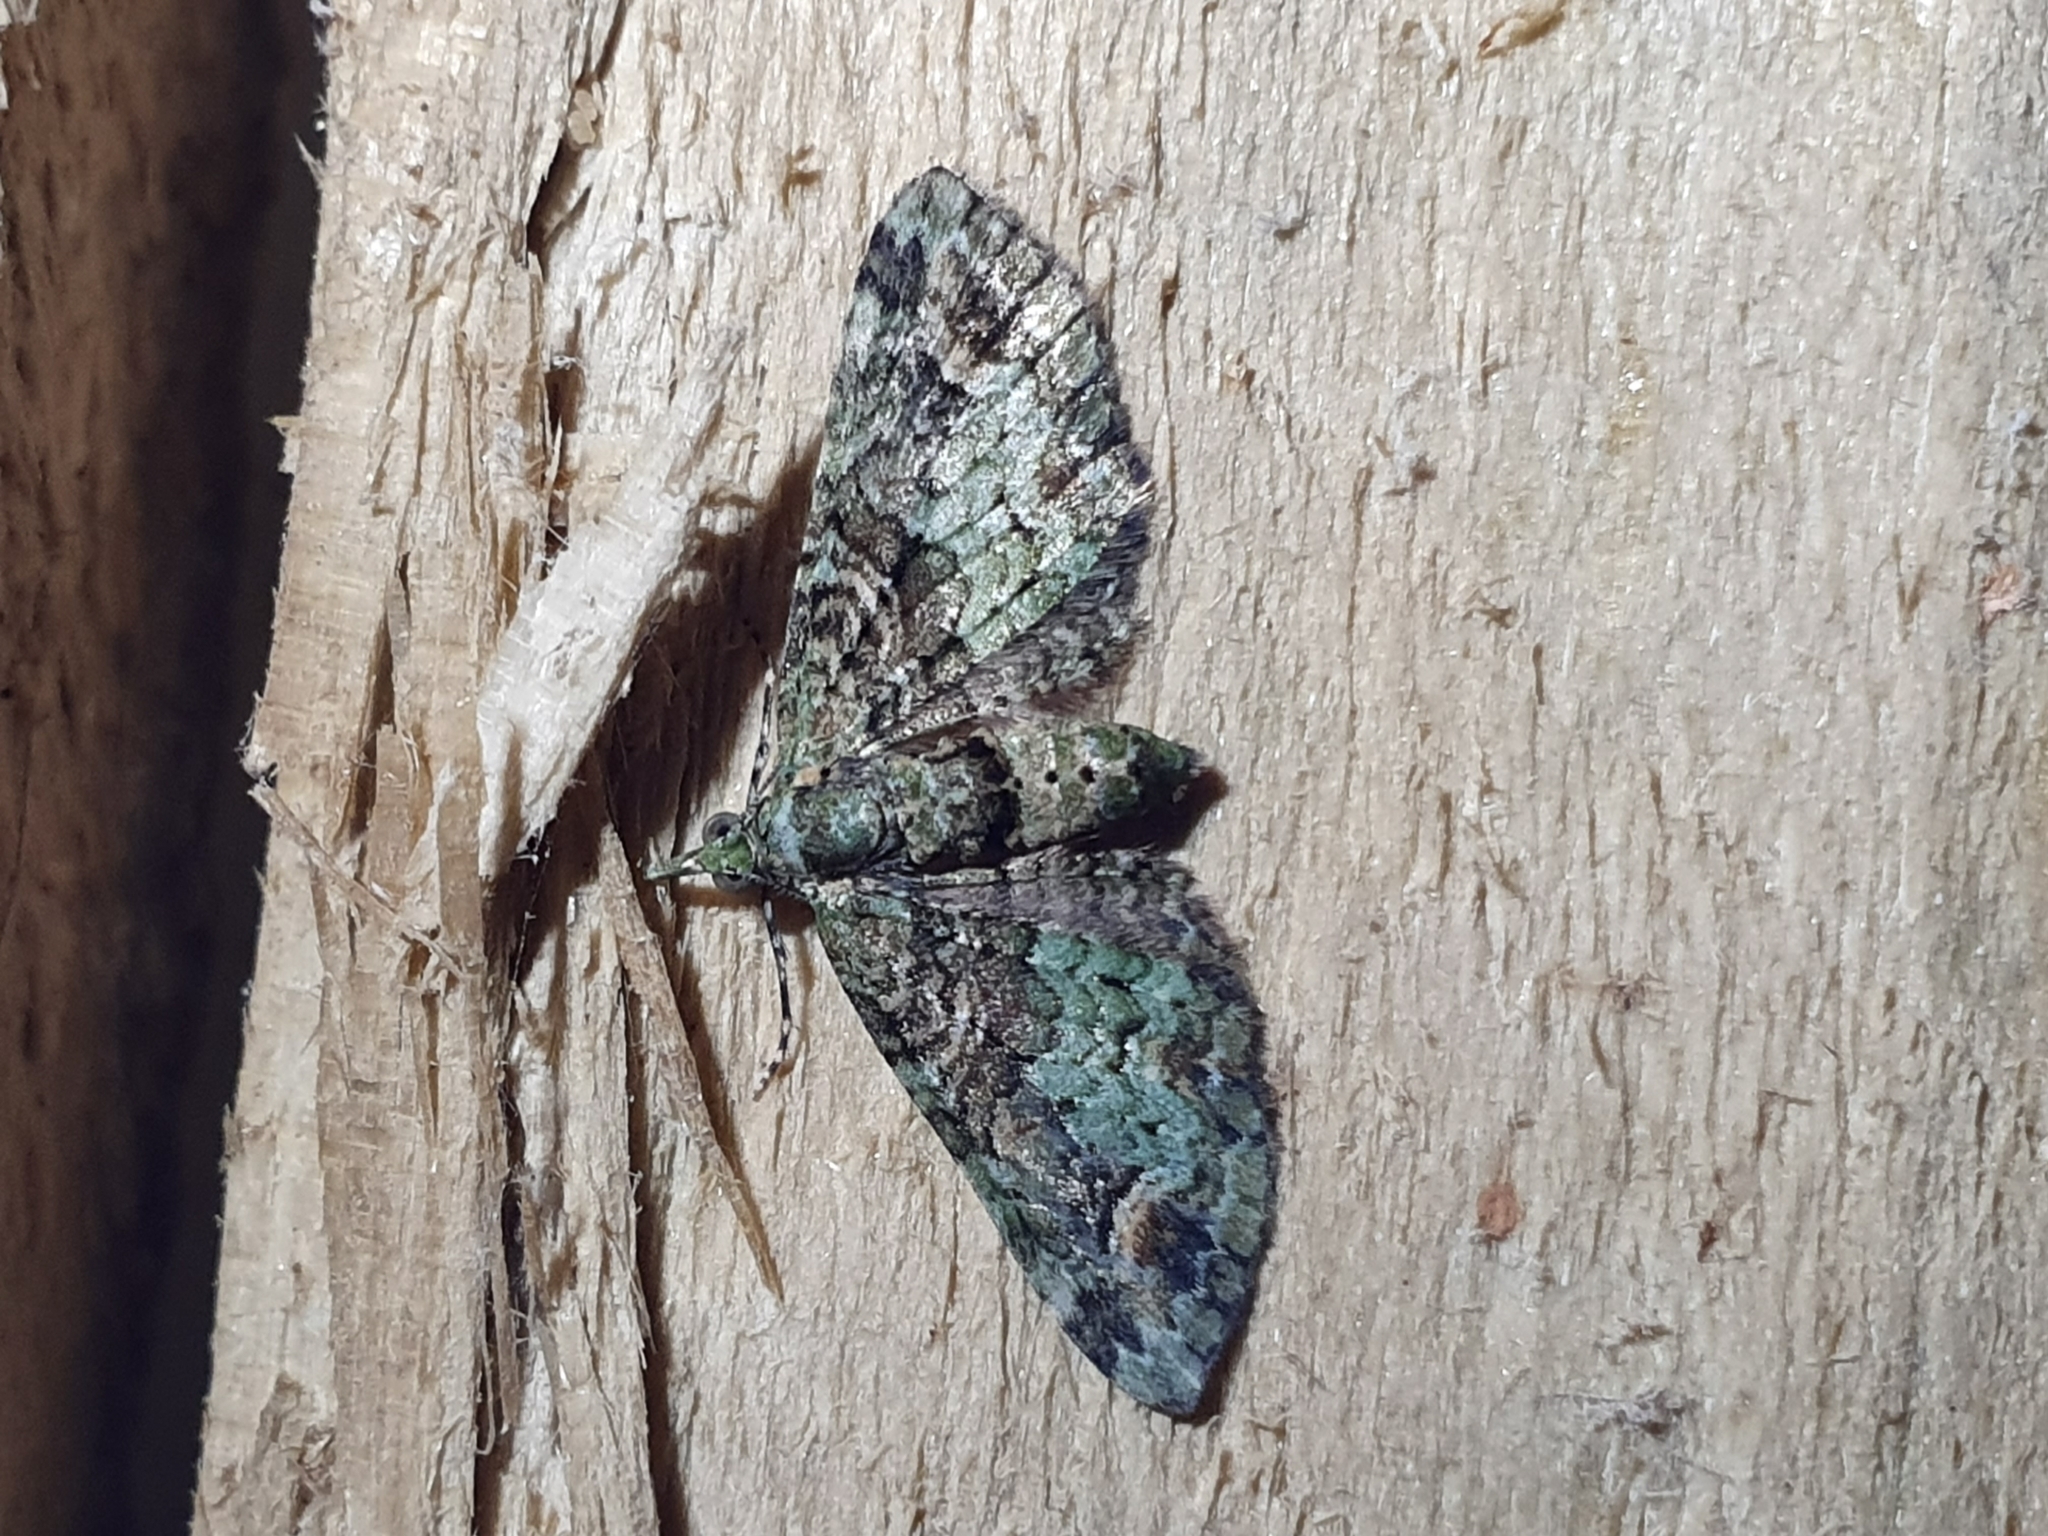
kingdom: Animalia
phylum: Arthropoda
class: Insecta
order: Lepidoptera
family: Geometridae
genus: Idaea
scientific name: Idaea mutanda
